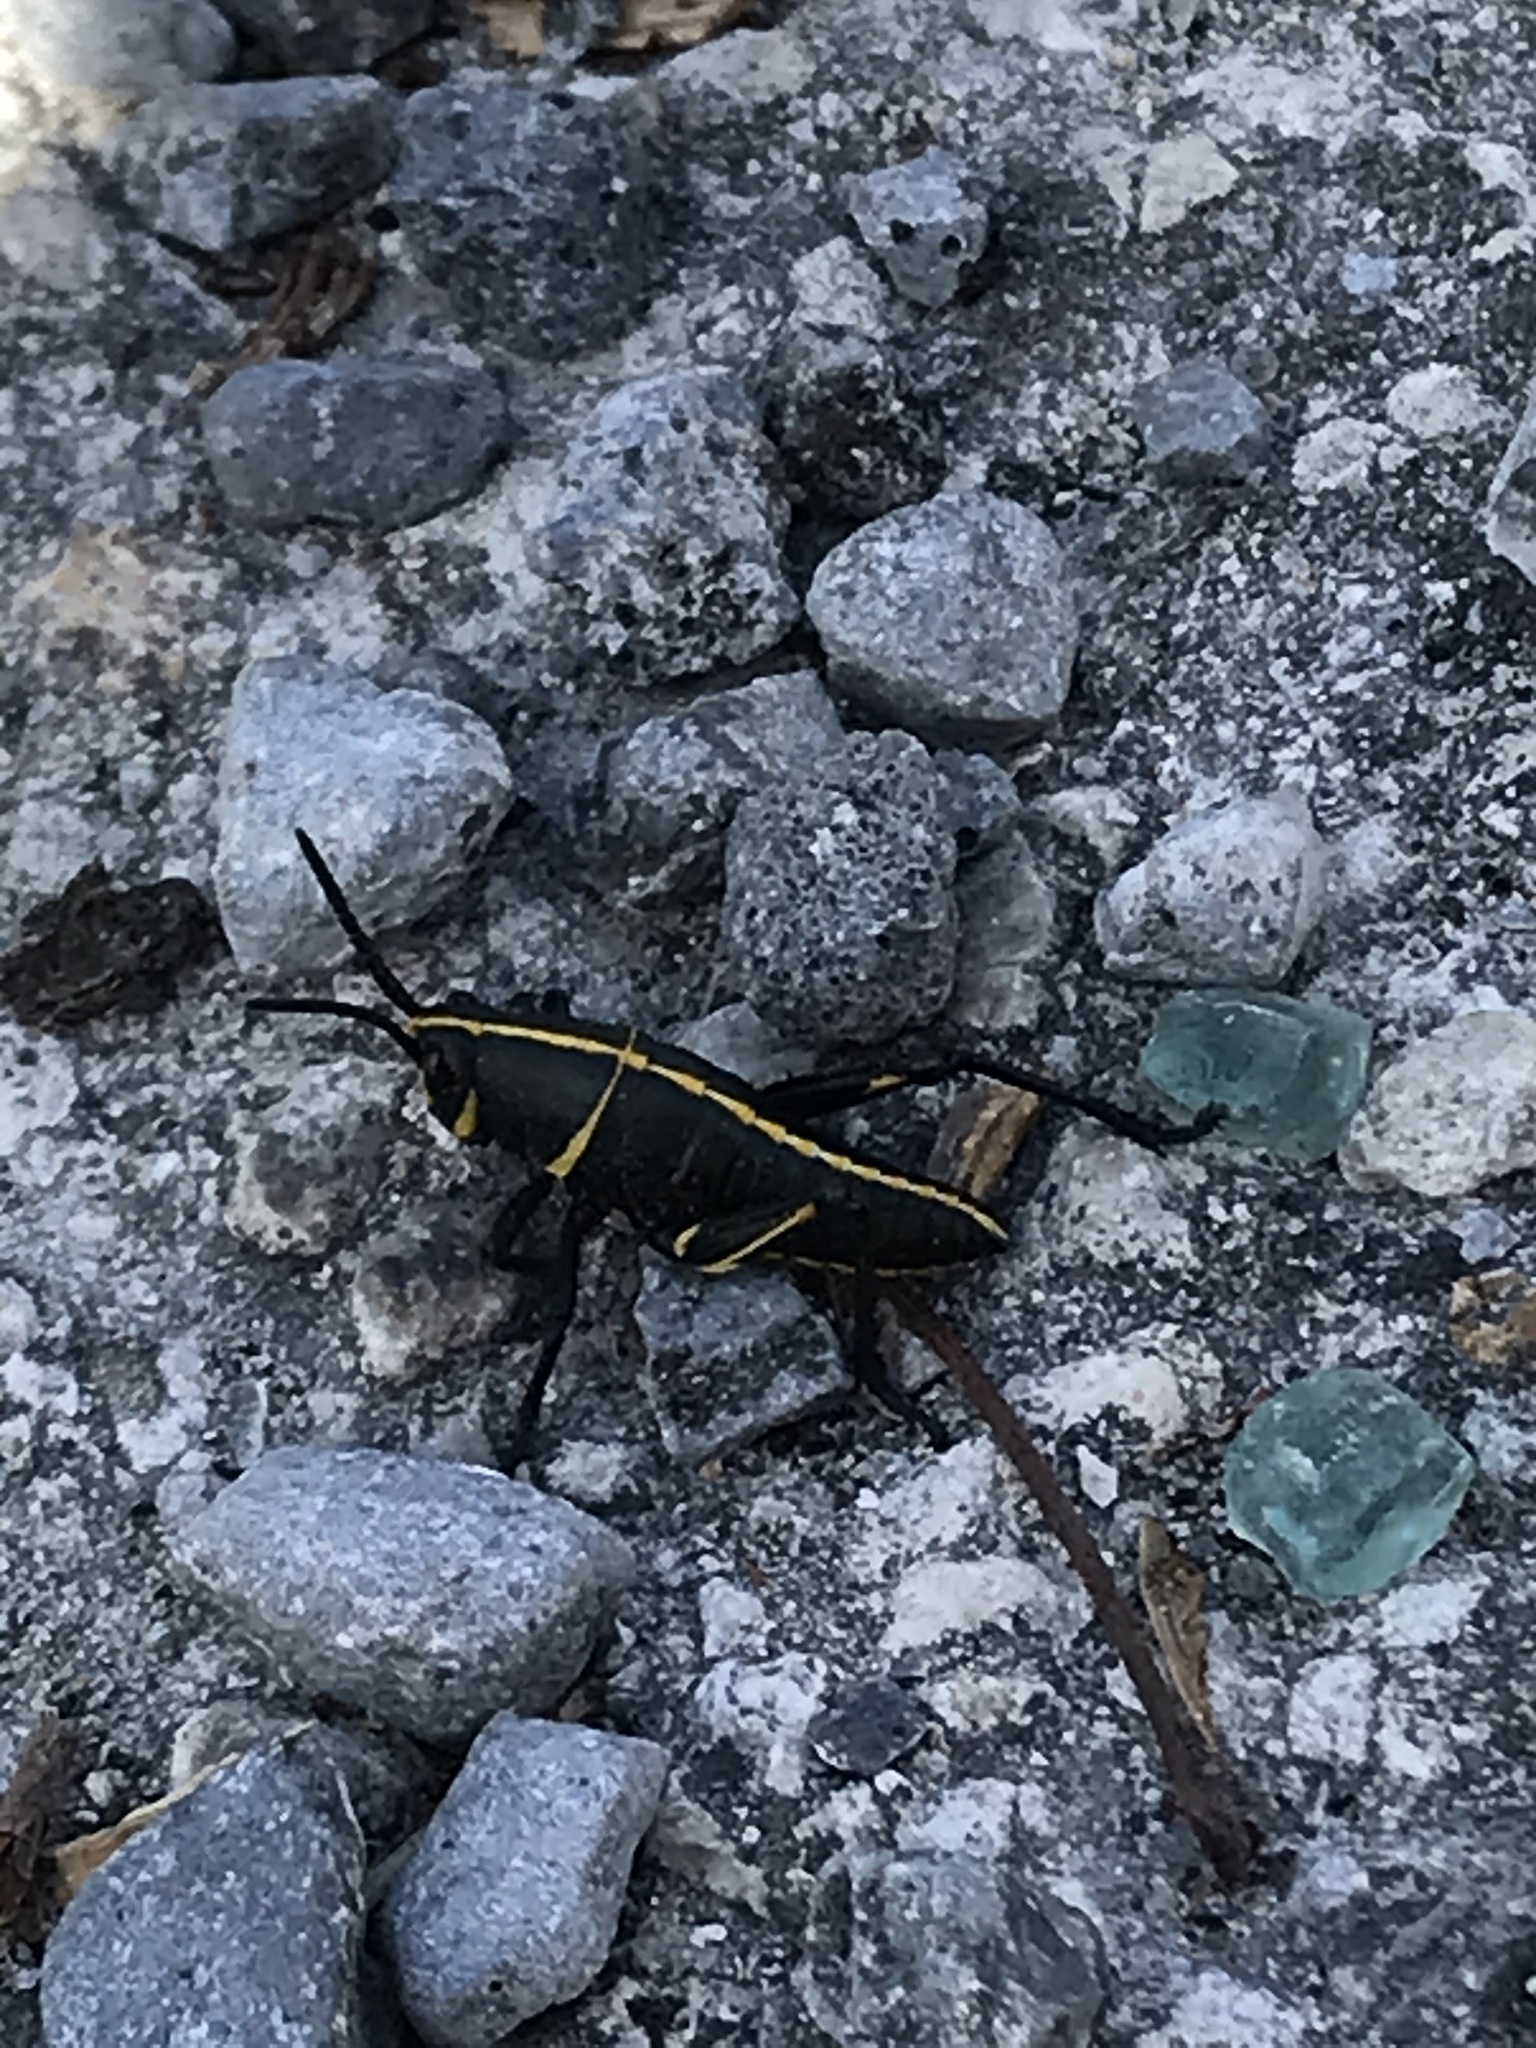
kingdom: Animalia
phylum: Arthropoda
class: Insecta
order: Orthoptera
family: Romaleidae
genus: Romalea
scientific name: Romalea microptera
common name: Eastern lubber grasshopper
